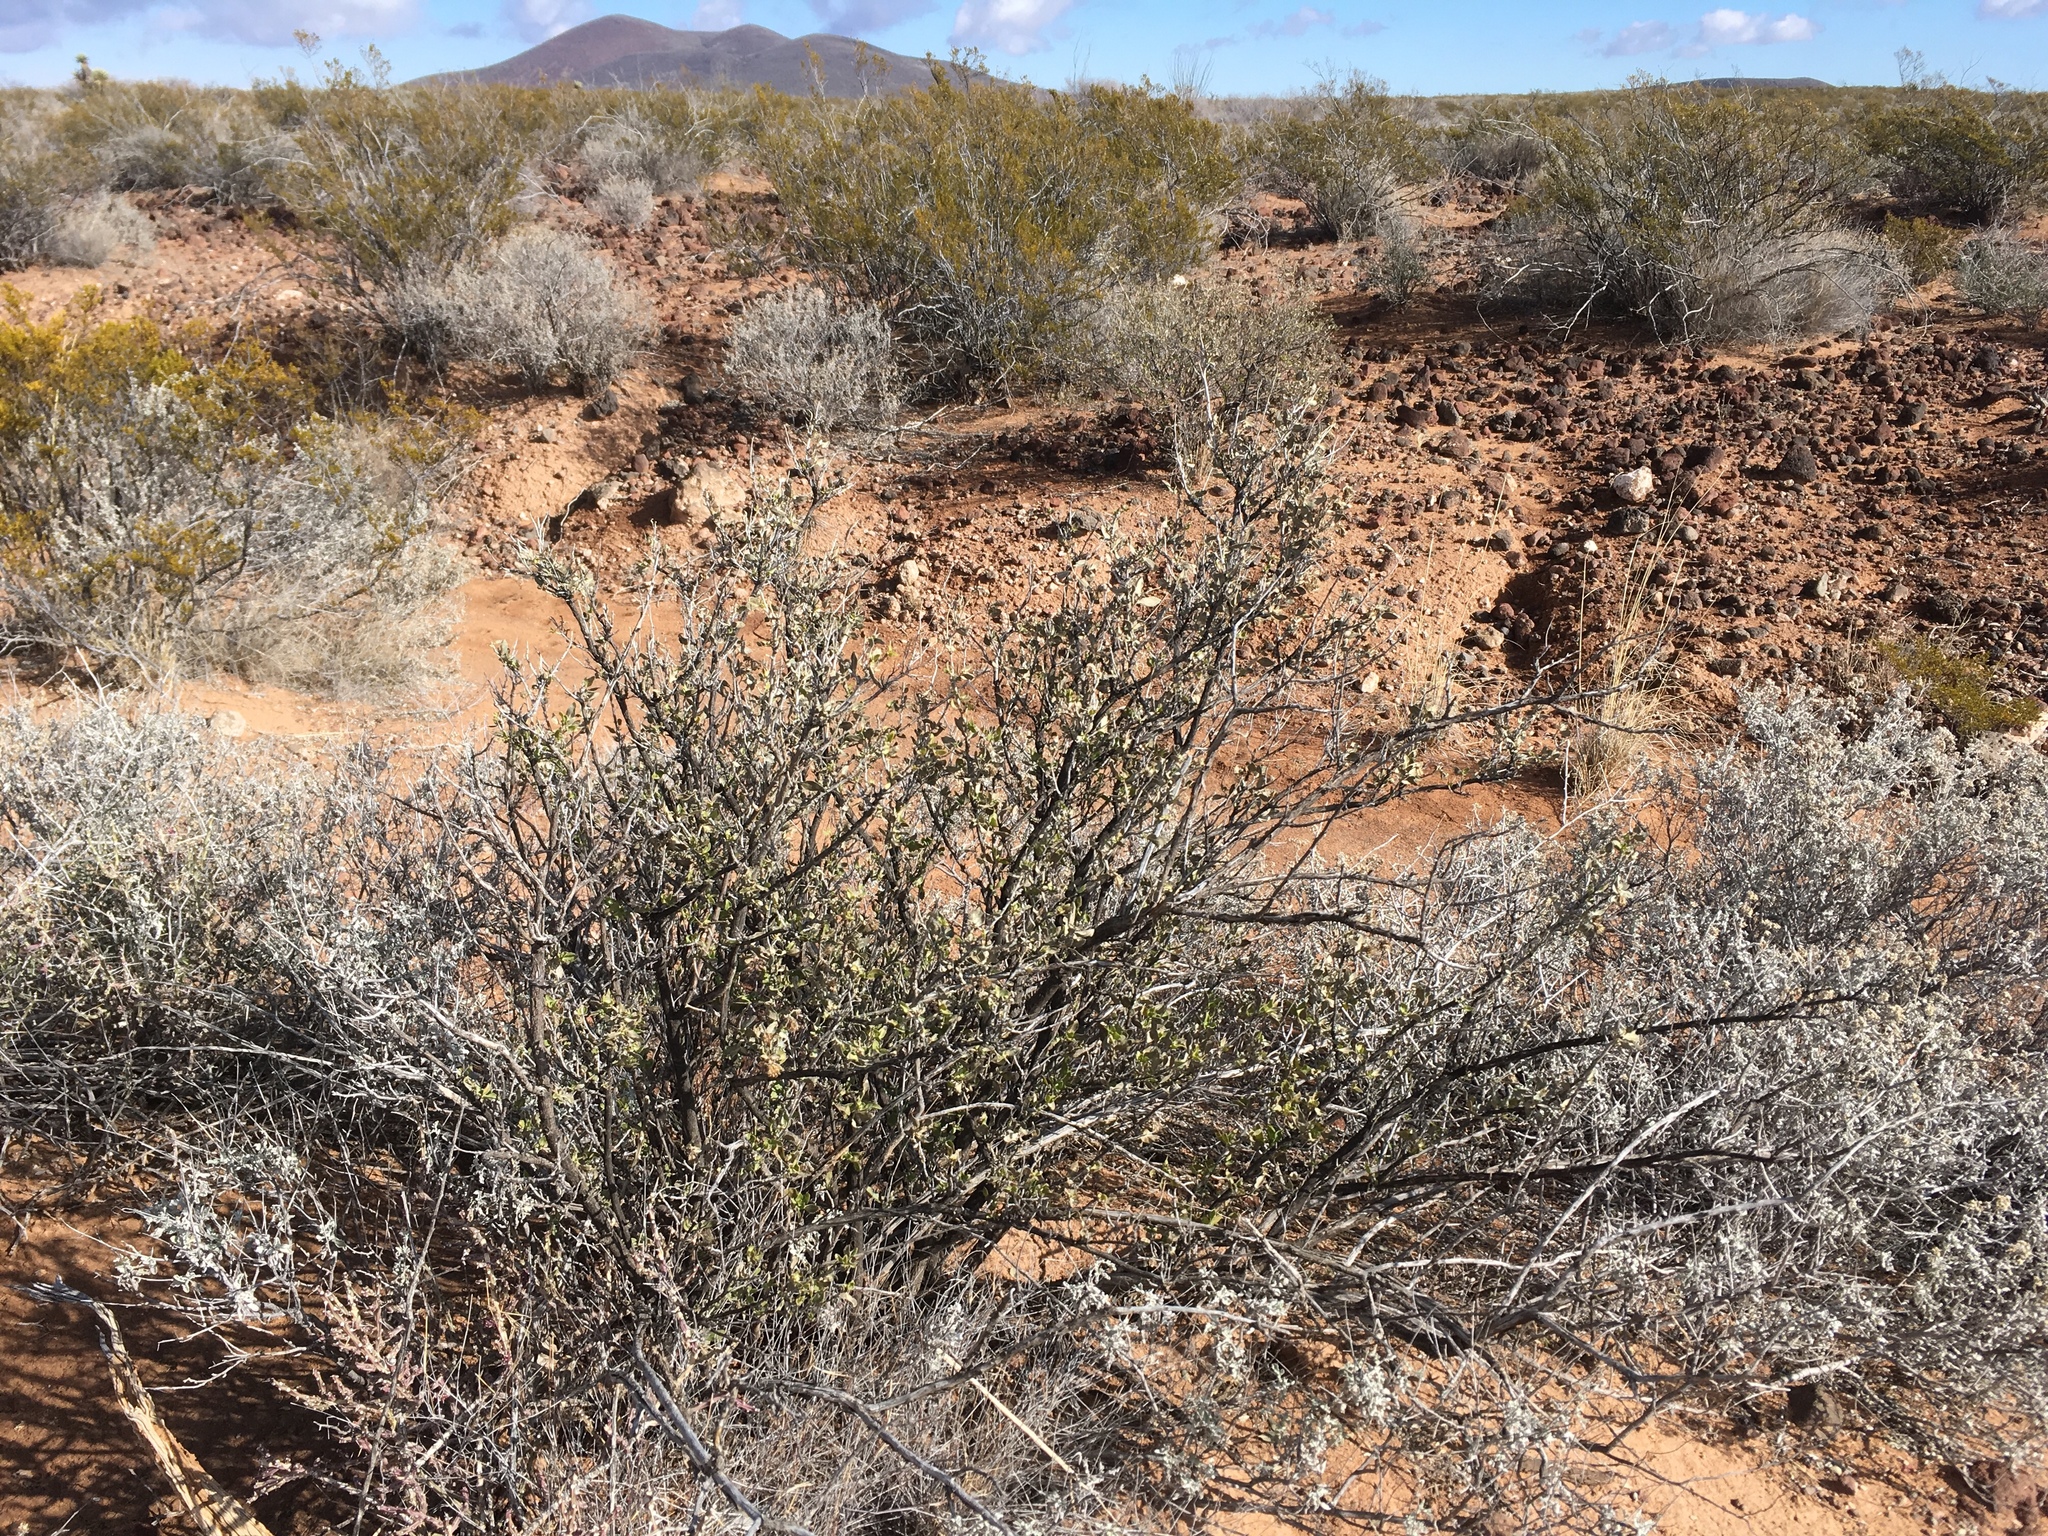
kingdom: Plantae
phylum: Tracheophyta
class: Magnoliopsida
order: Asterales
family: Asteraceae
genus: Flourensia
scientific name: Flourensia cernua
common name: Varnishbush
